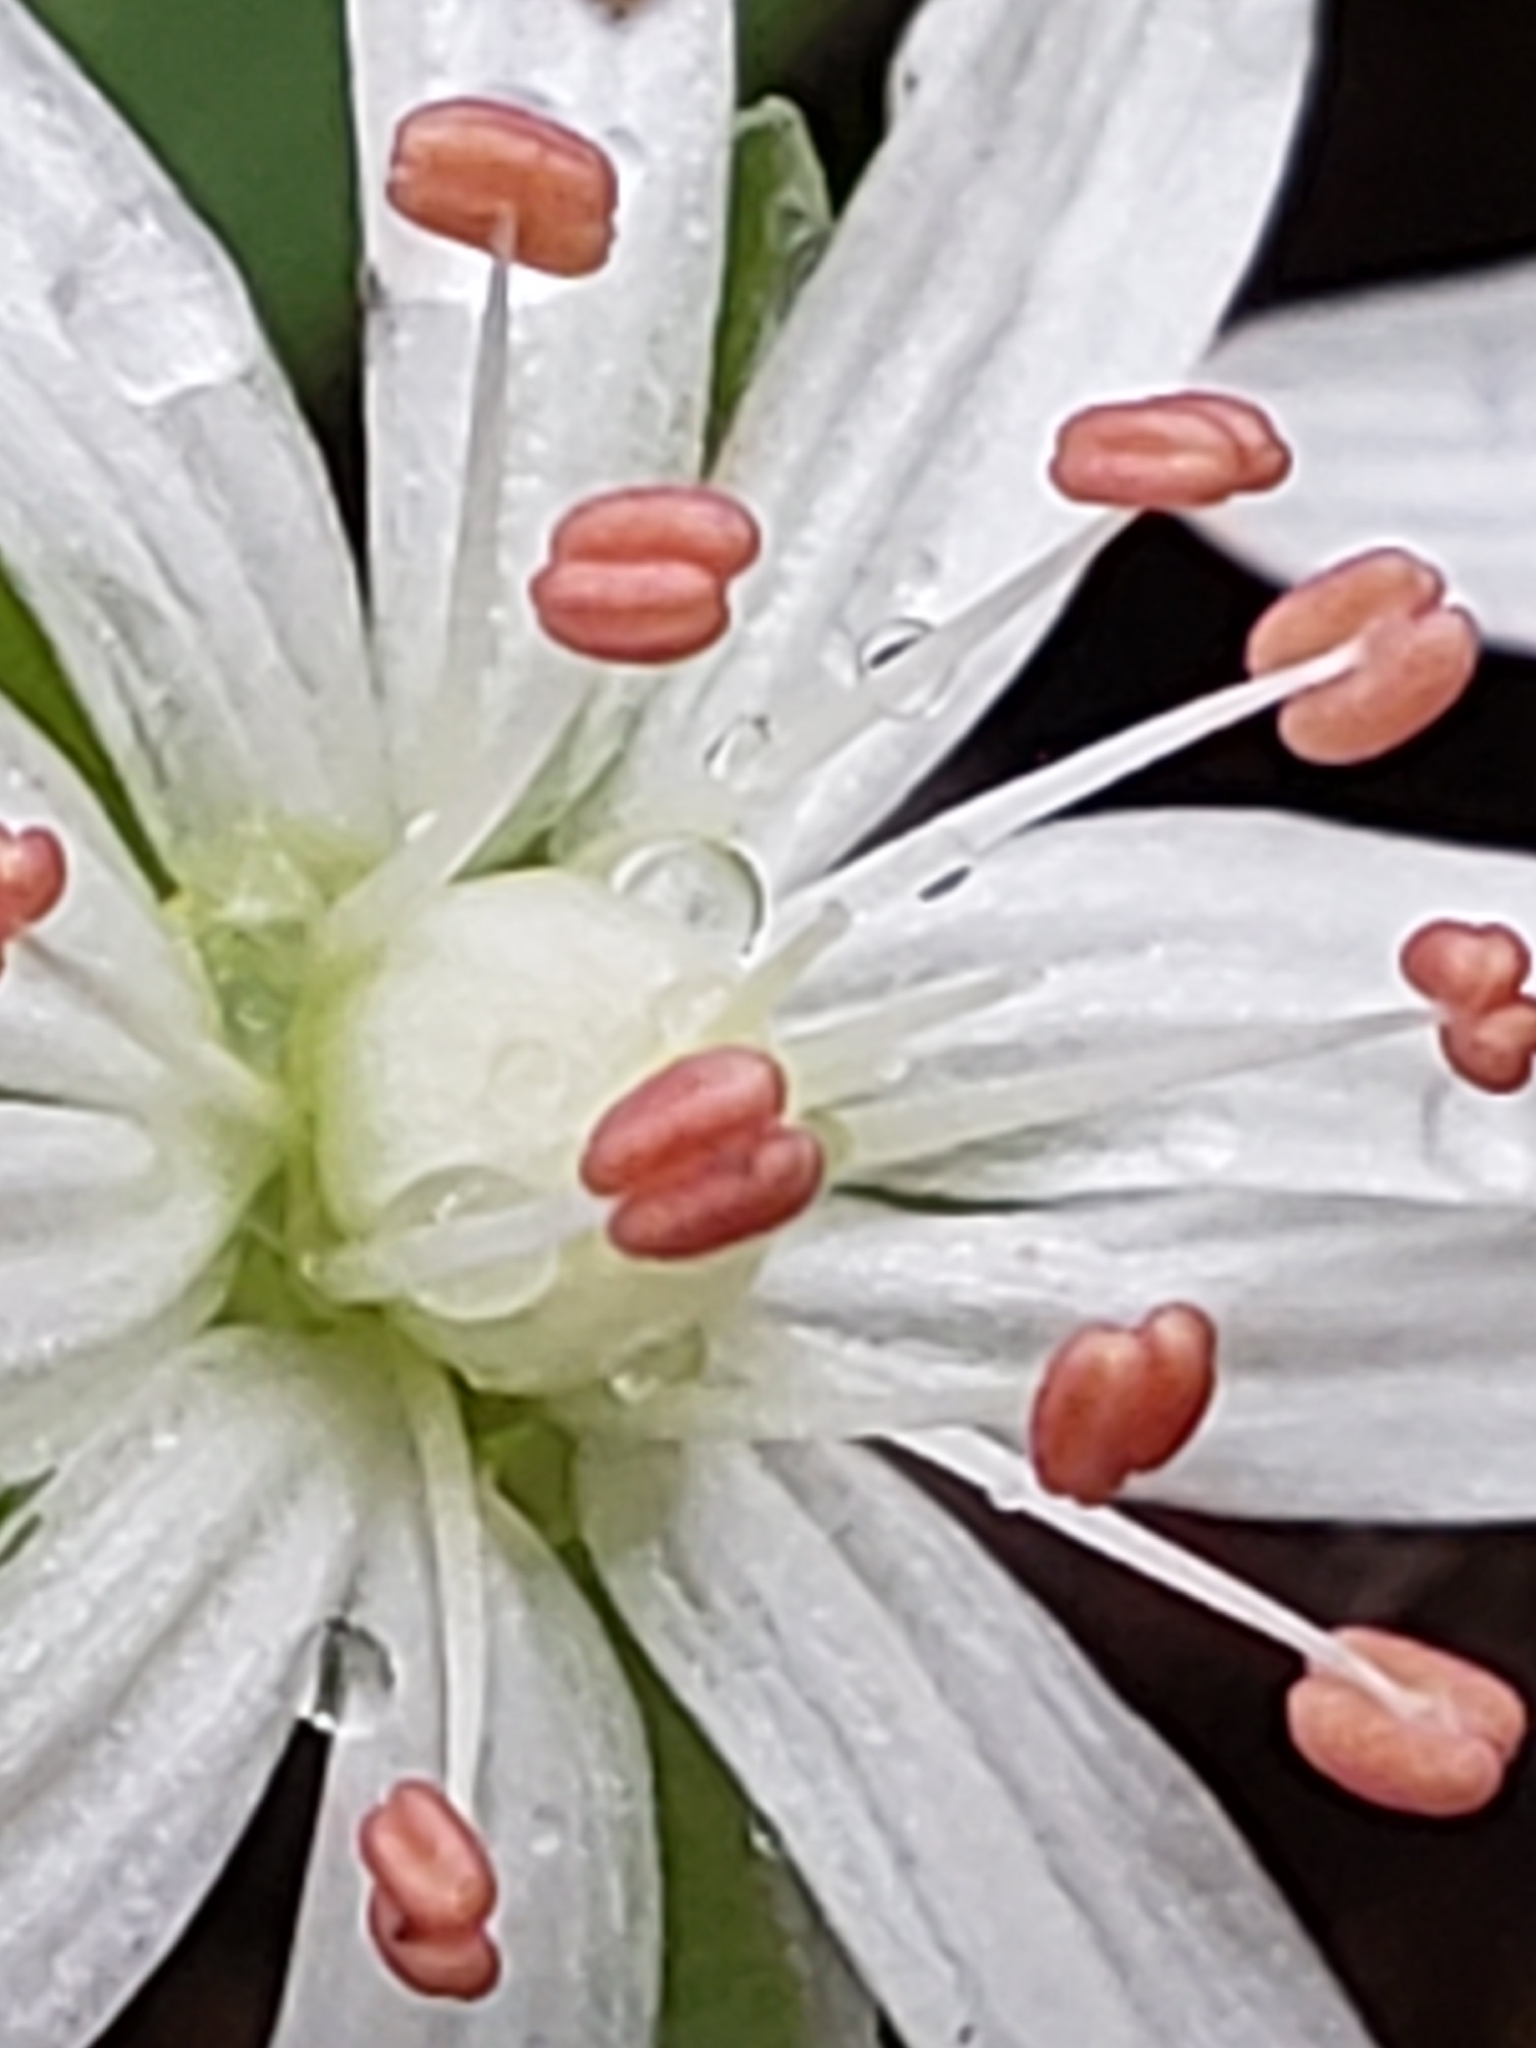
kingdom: Plantae
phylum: Tracheophyta
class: Magnoliopsida
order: Caryophyllales
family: Caryophyllaceae
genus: Stellaria
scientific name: Stellaria pubera
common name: Star chickweed
